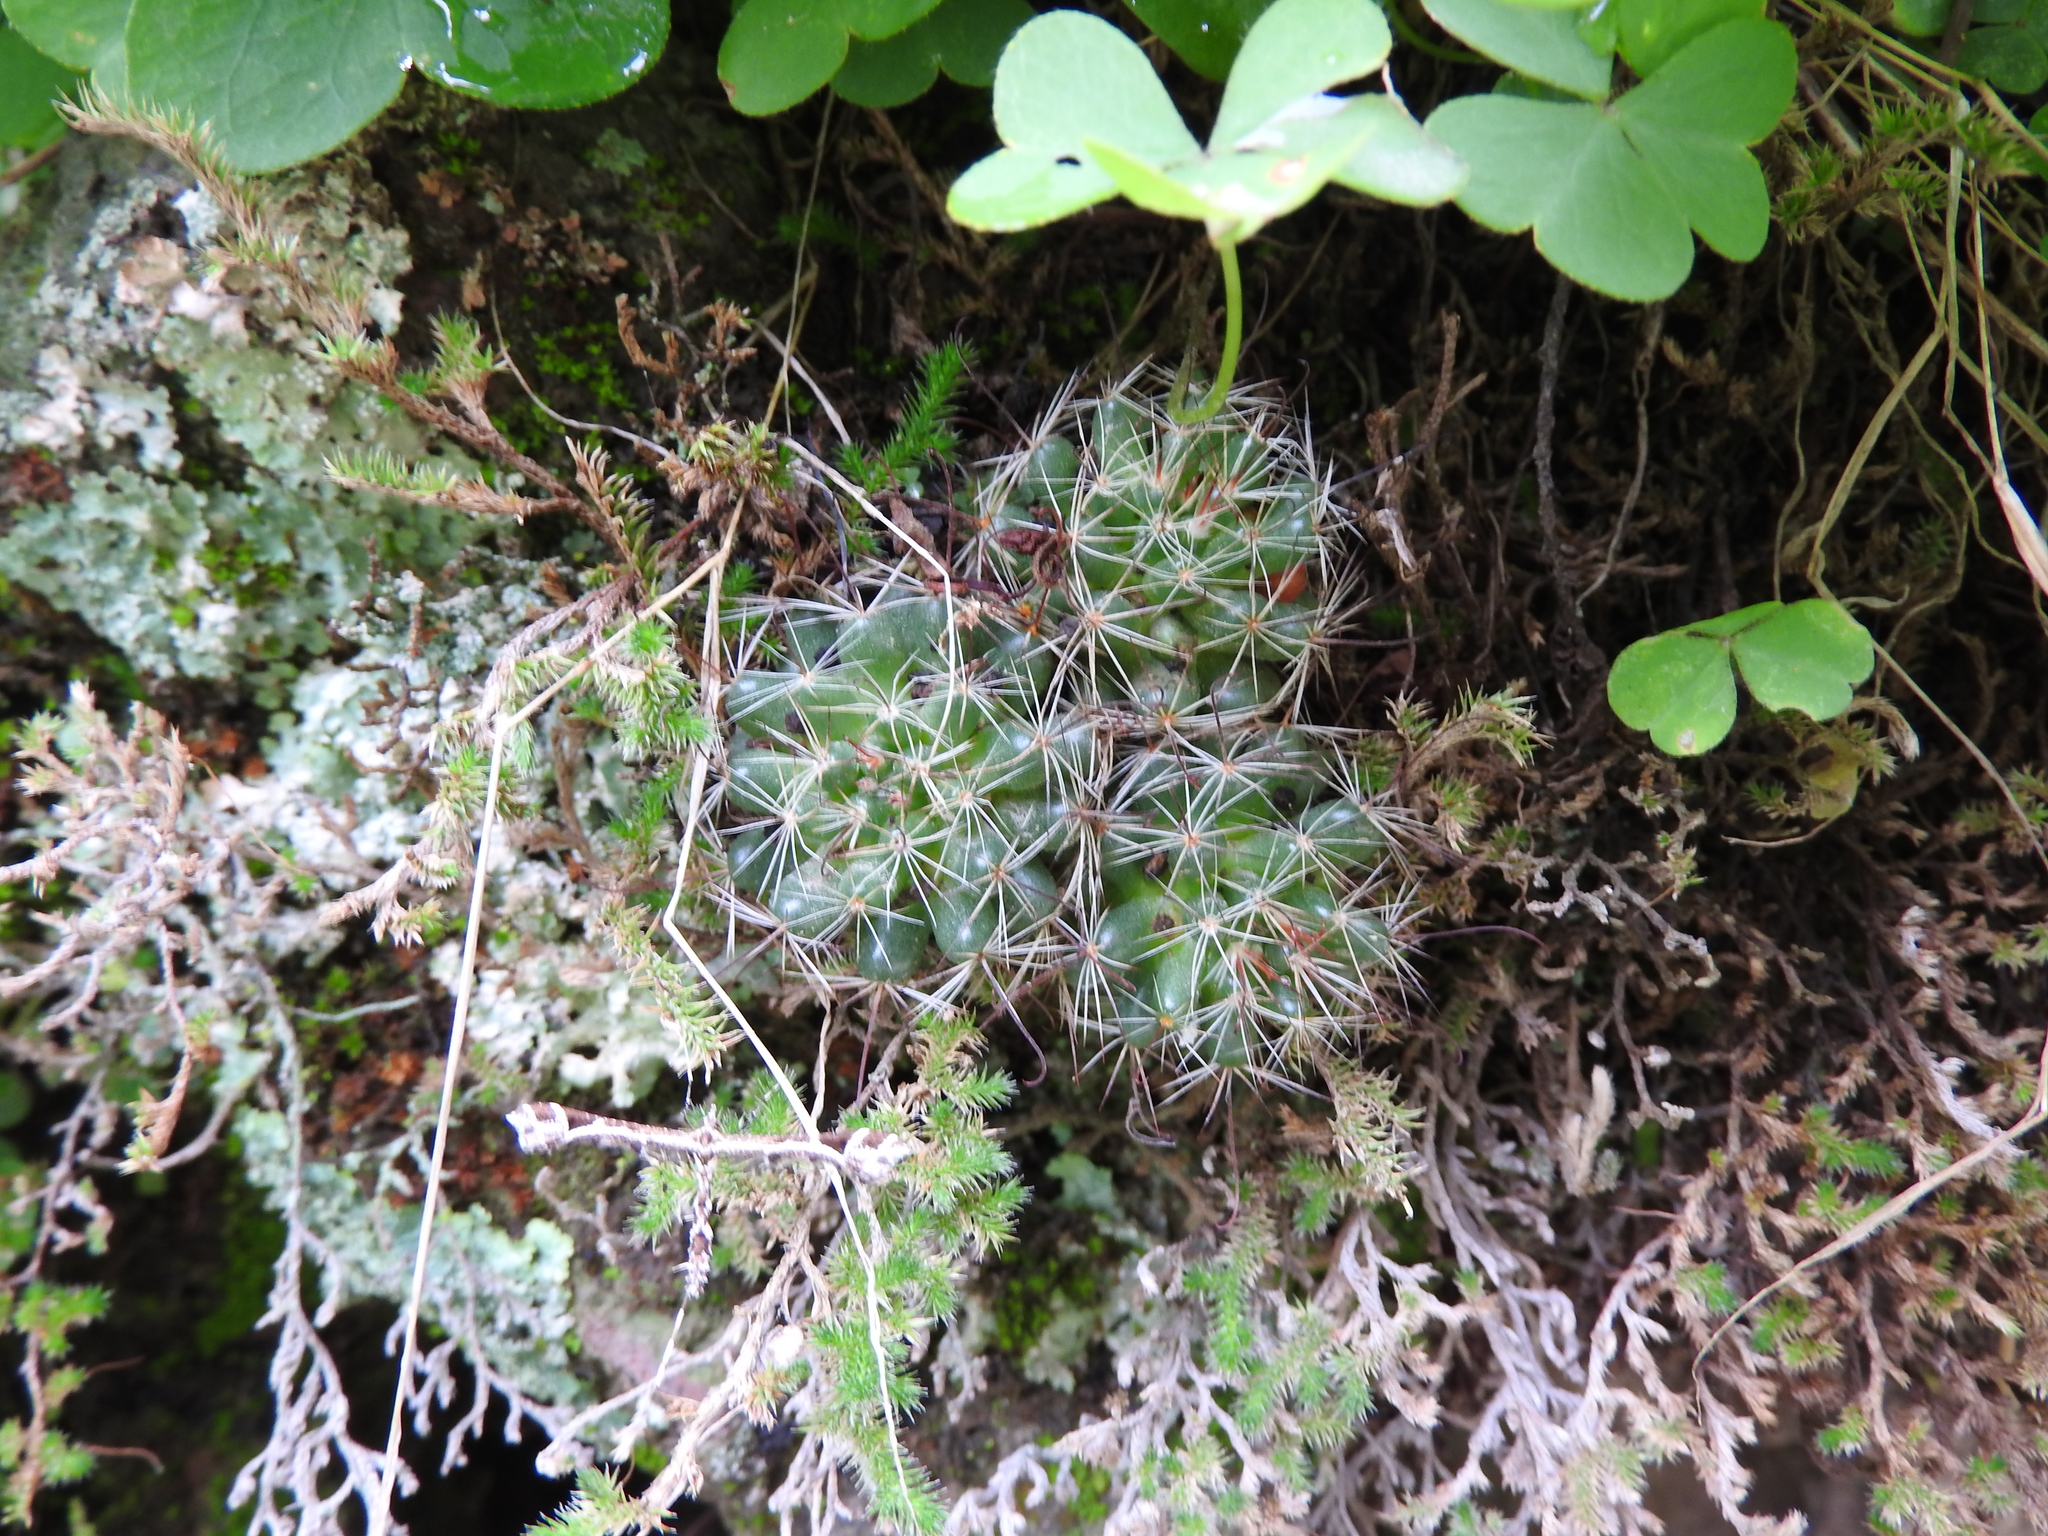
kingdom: Plantae
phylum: Tracheophyta
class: Magnoliopsida
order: Caryophyllales
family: Cactaceae
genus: Mammillaria
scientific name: Mammillaria fittkaui
